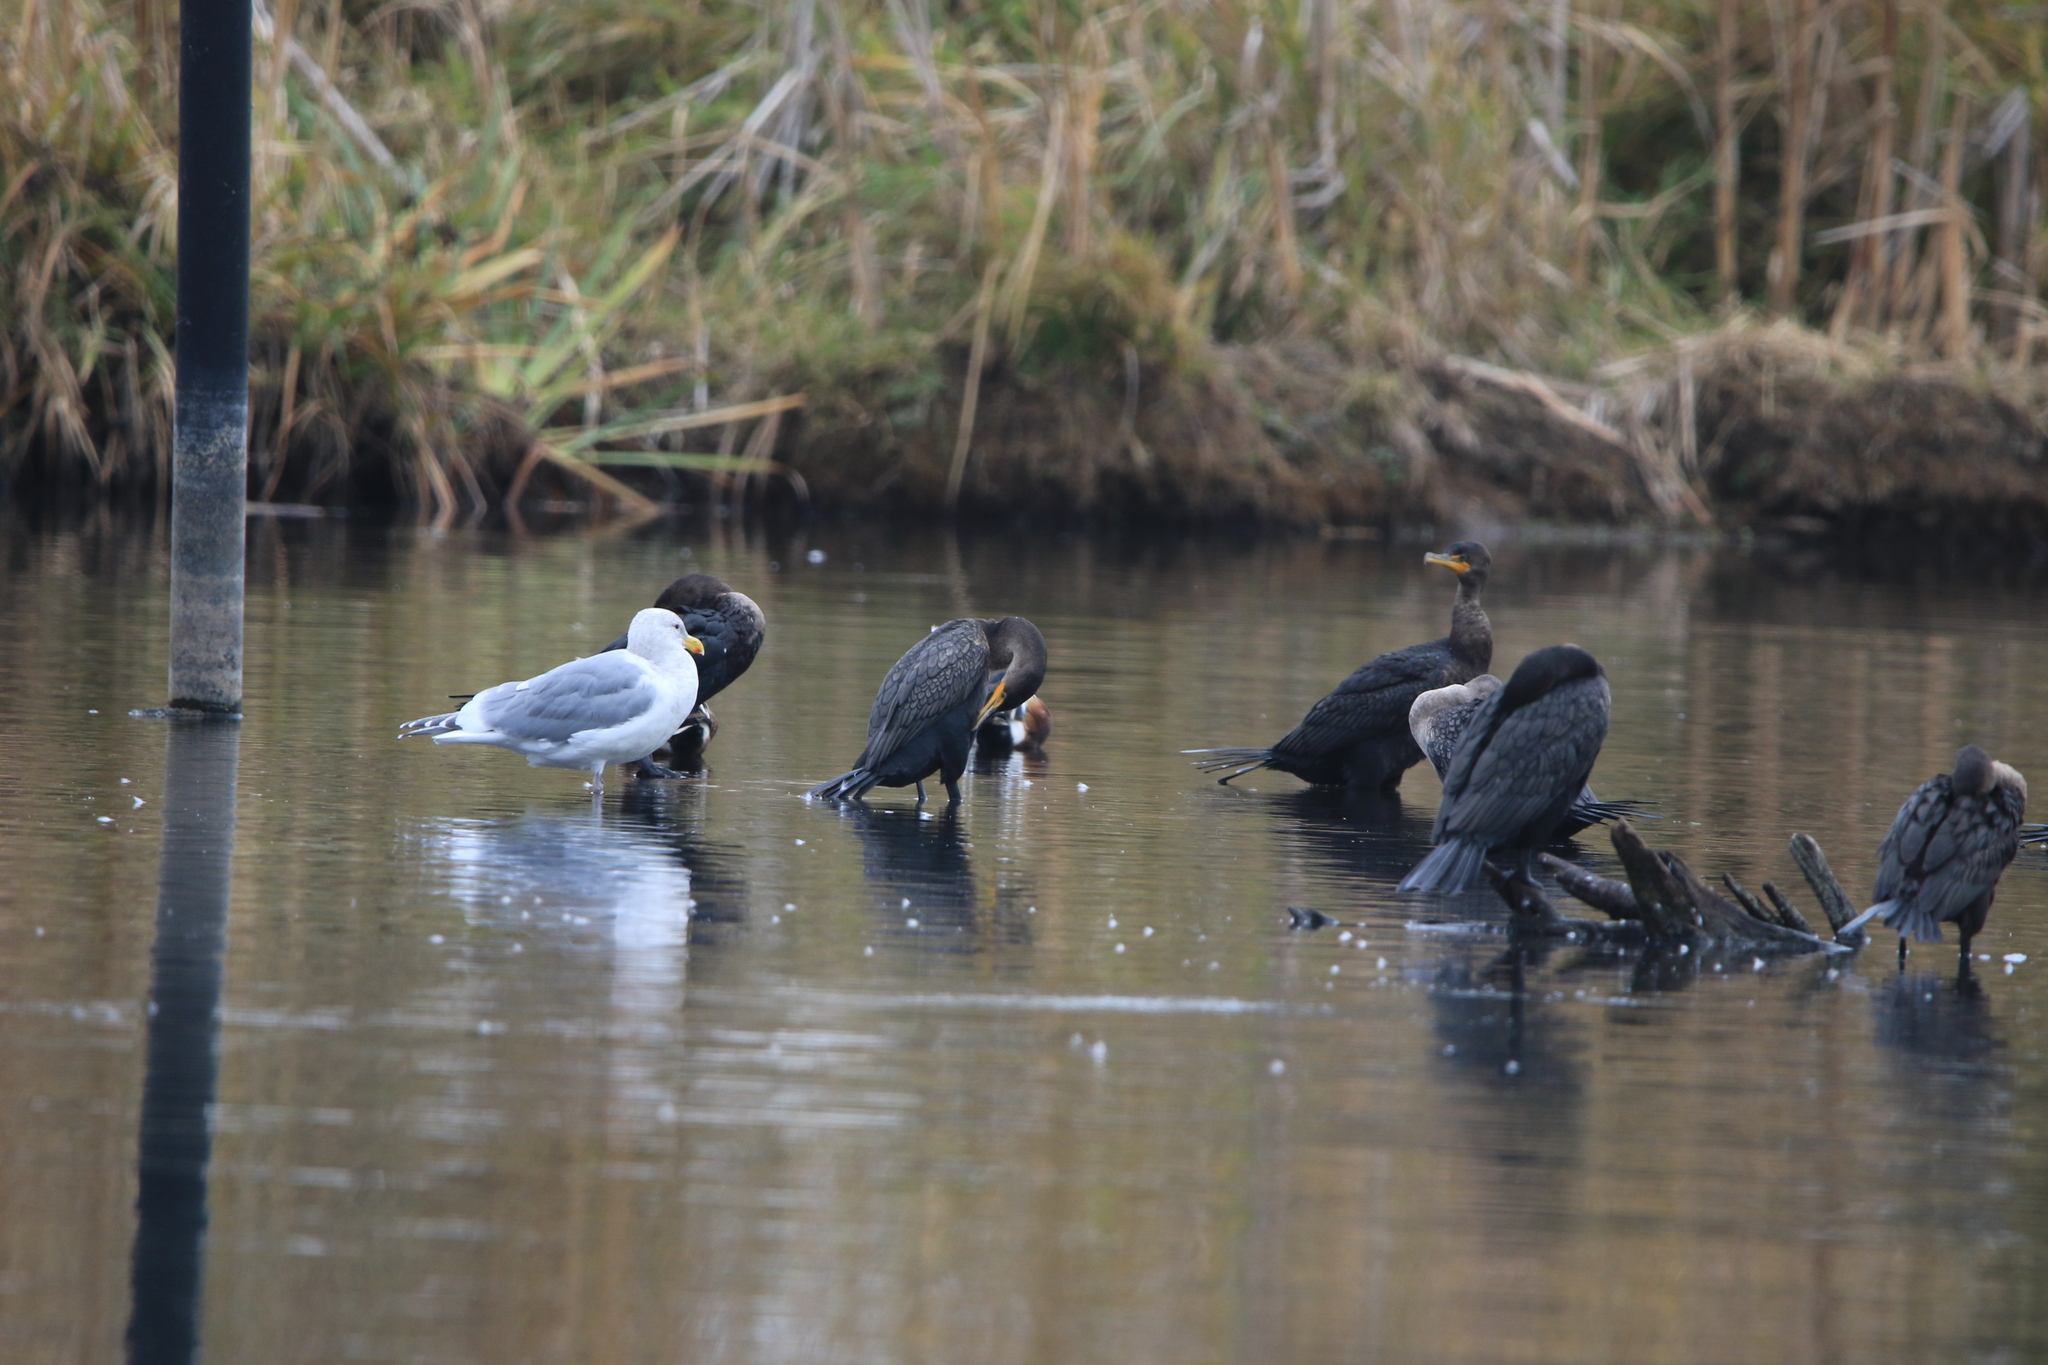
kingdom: Animalia
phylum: Chordata
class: Aves
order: Charadriiformes
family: Laridae
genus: Larus
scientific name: Larus glaucescens
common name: Glaucous-winged gull
